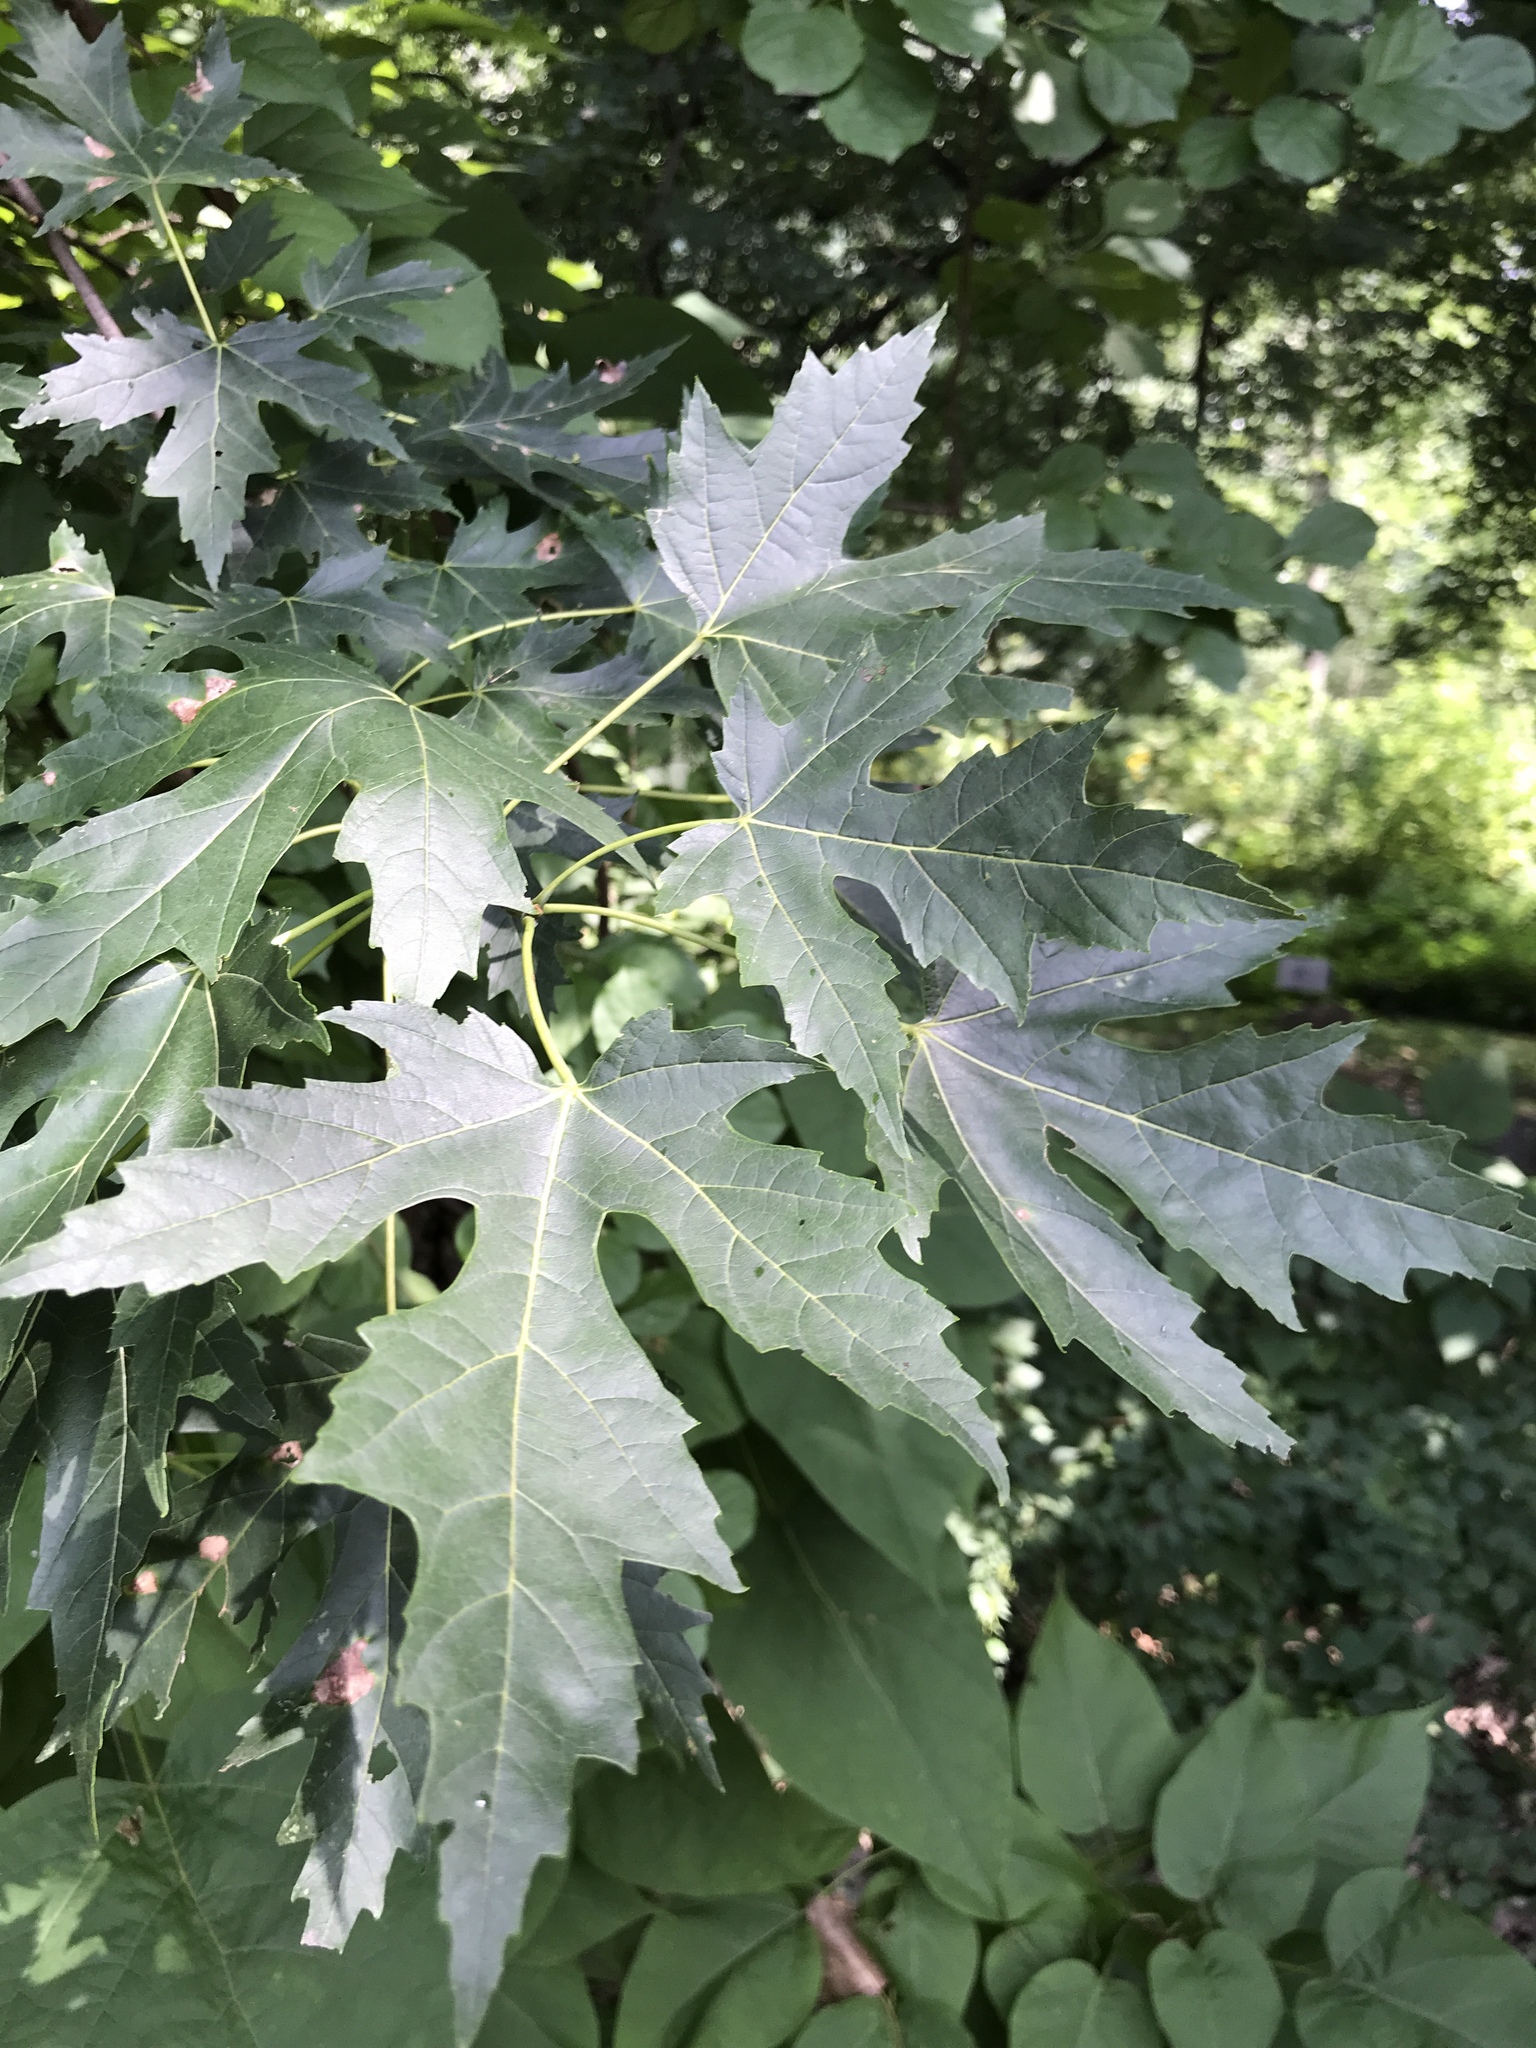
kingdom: Plantae
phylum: Tracheophyta
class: Magnoliopsida
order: Sapindales
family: Sapindaceae
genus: Acer
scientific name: Acer saccharinum
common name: Silver maple
